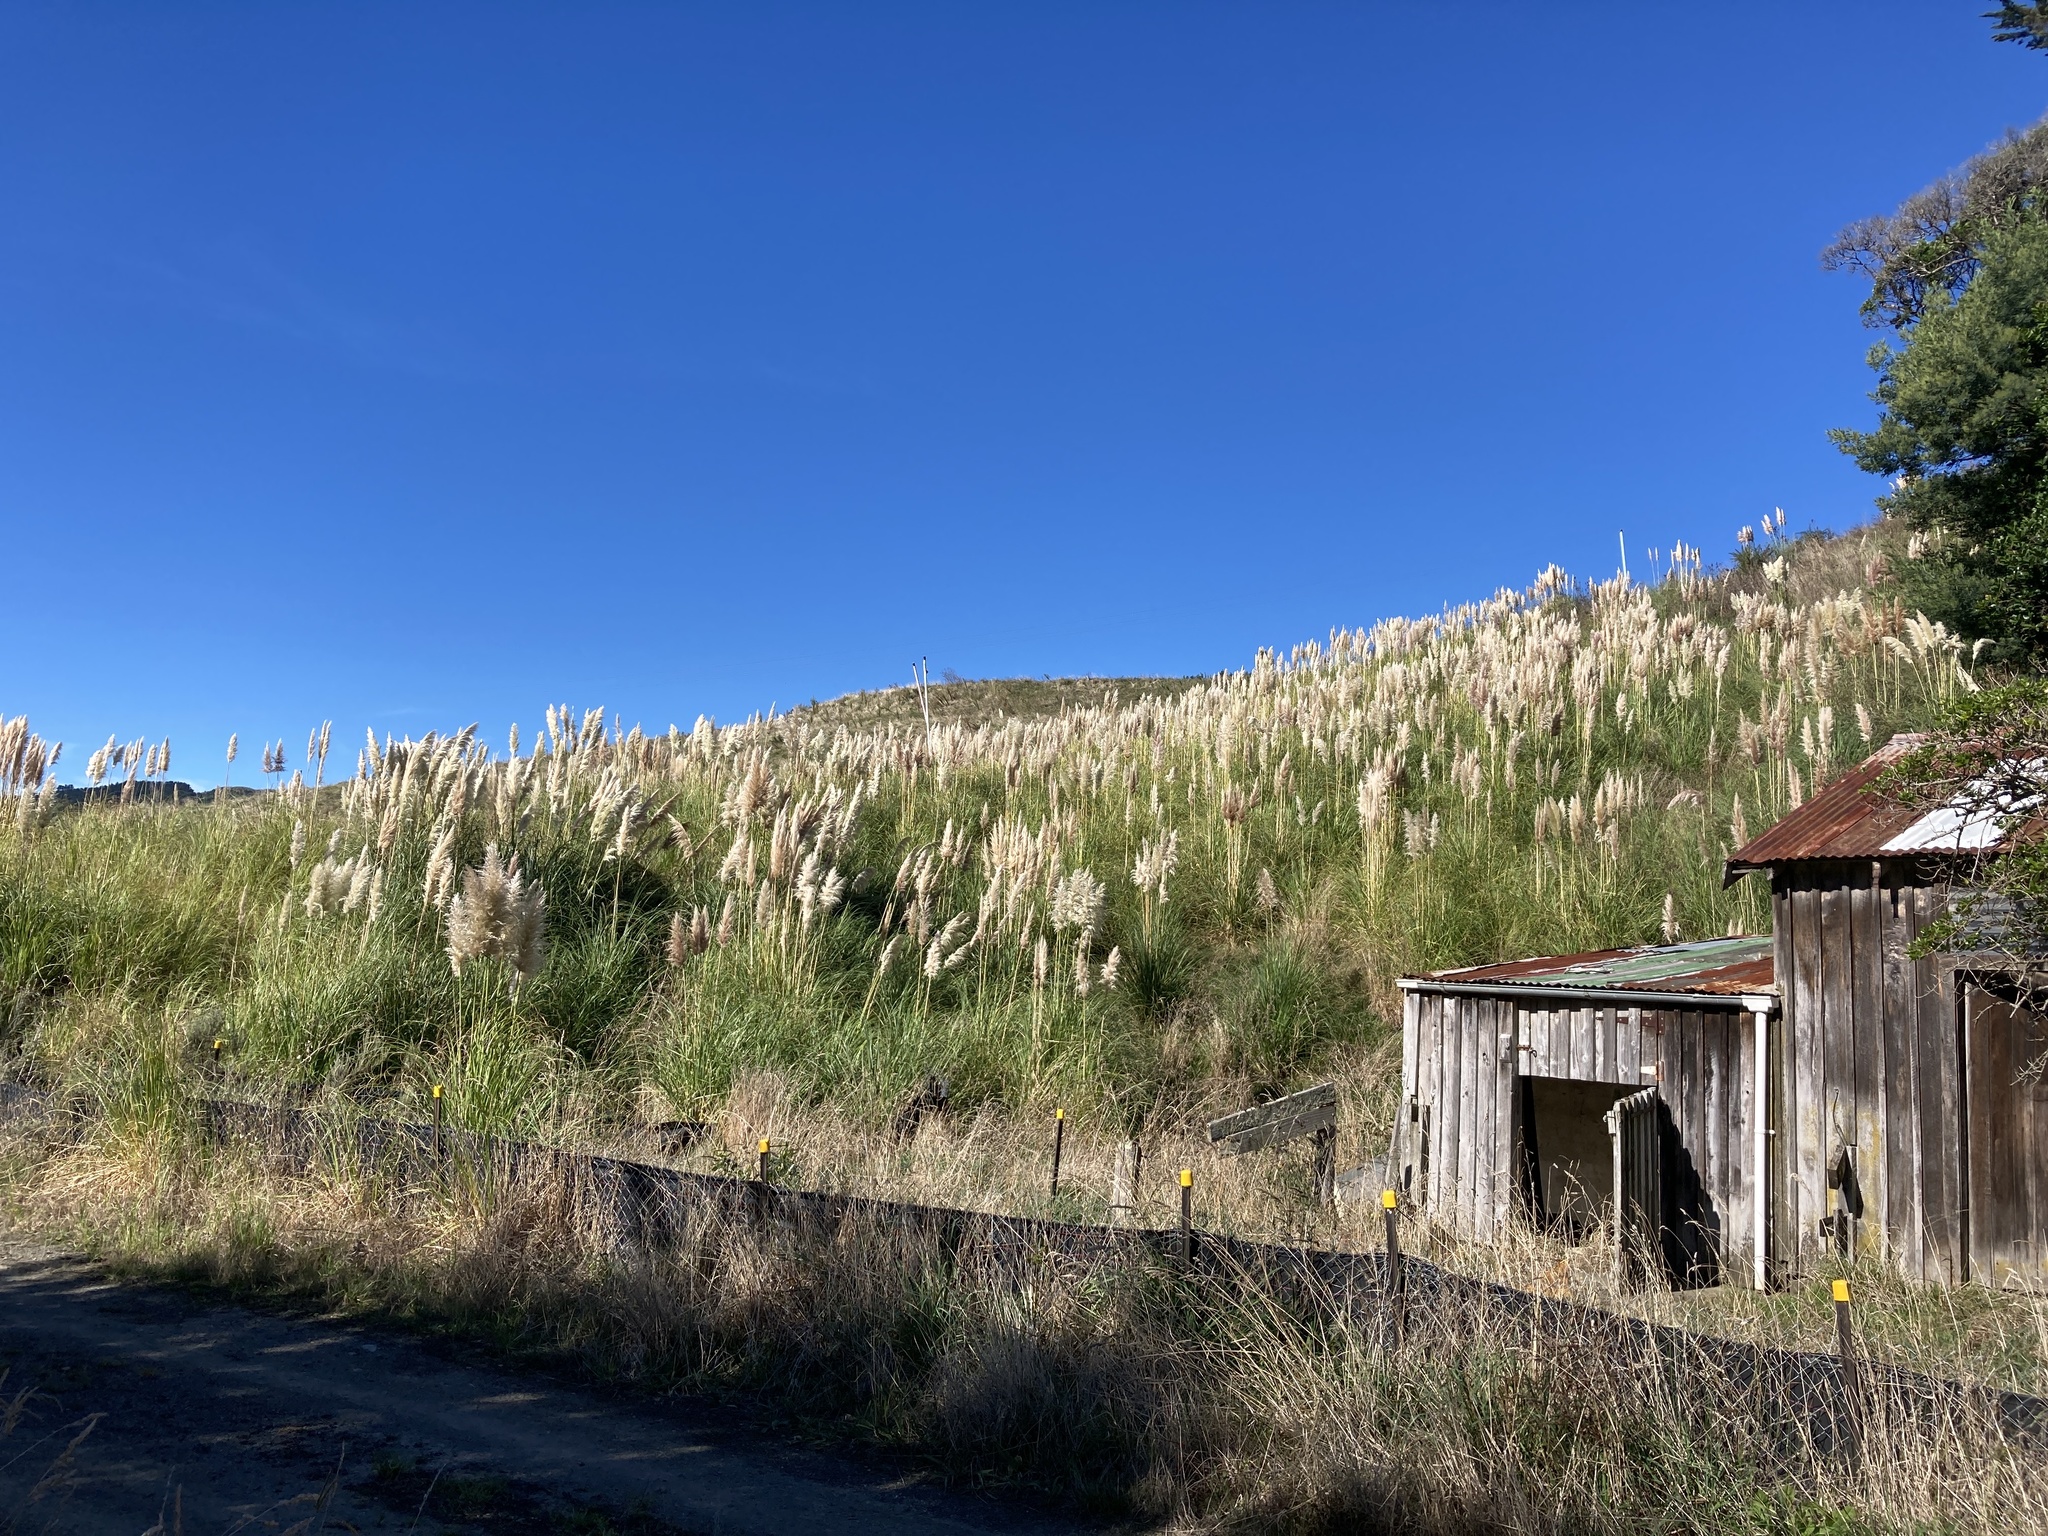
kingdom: Plantae
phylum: Tracheophyta
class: Liliopsida
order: Poales
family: Poaceae
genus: Cortaderia
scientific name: Cortaderia selloana
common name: Uruguayan pampas grass
